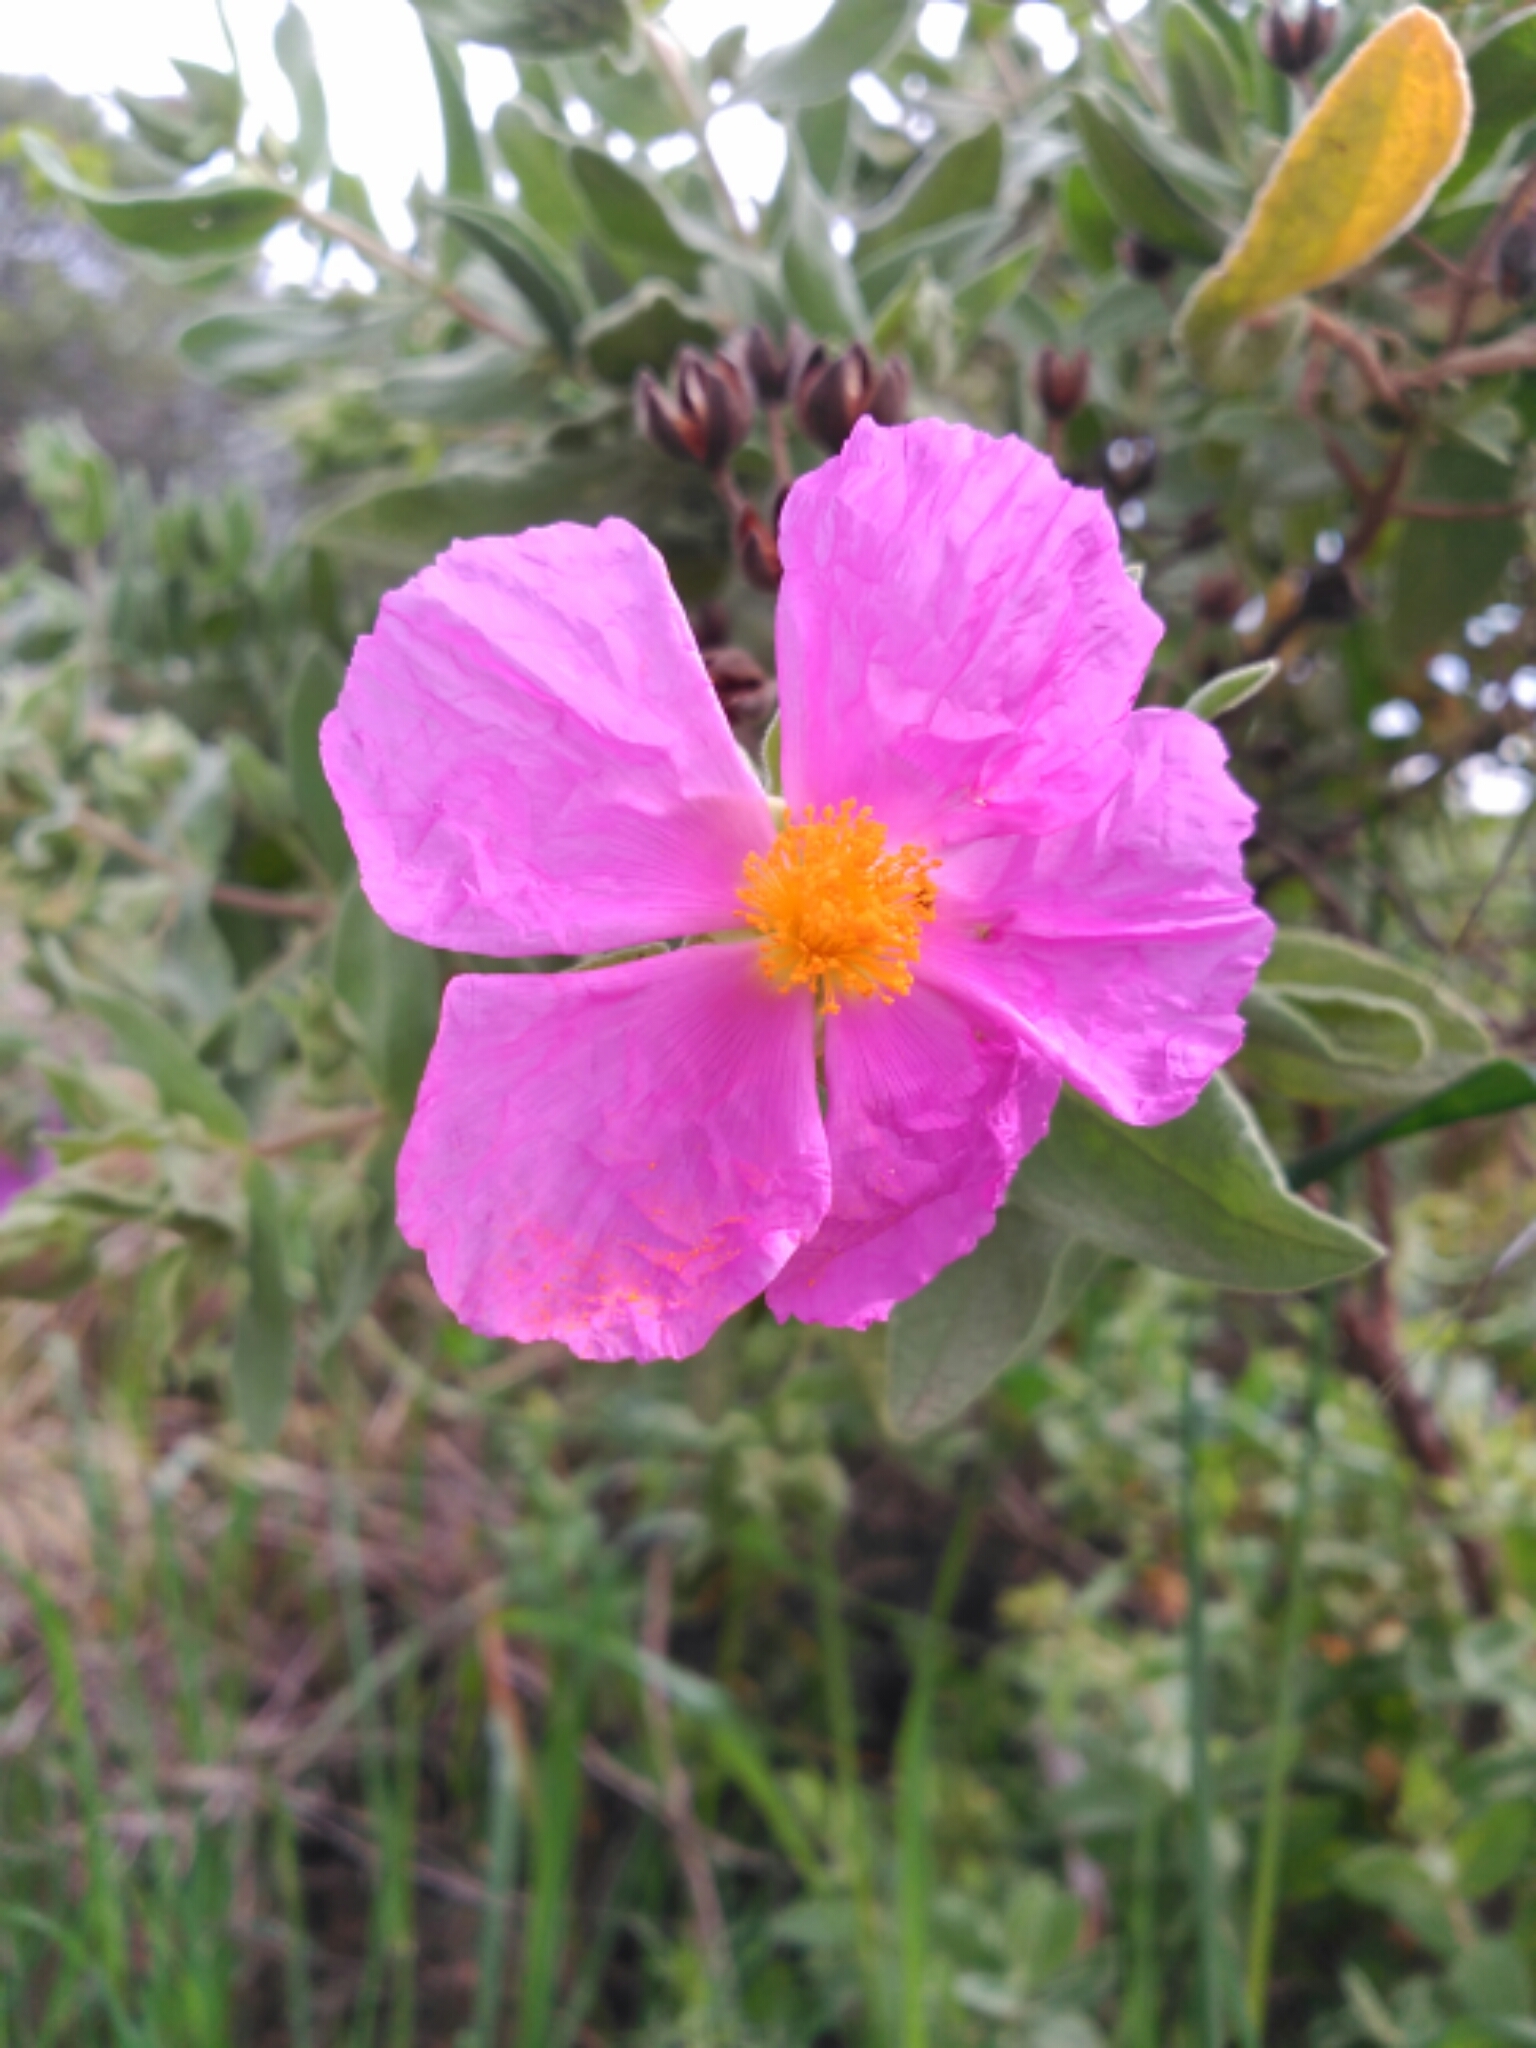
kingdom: Plantae
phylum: Tracheophyta
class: Magnoliopsida
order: Malvales
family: Cistaceae
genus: Cistus
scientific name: Cistus albidus
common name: White-leaf rock-rose
